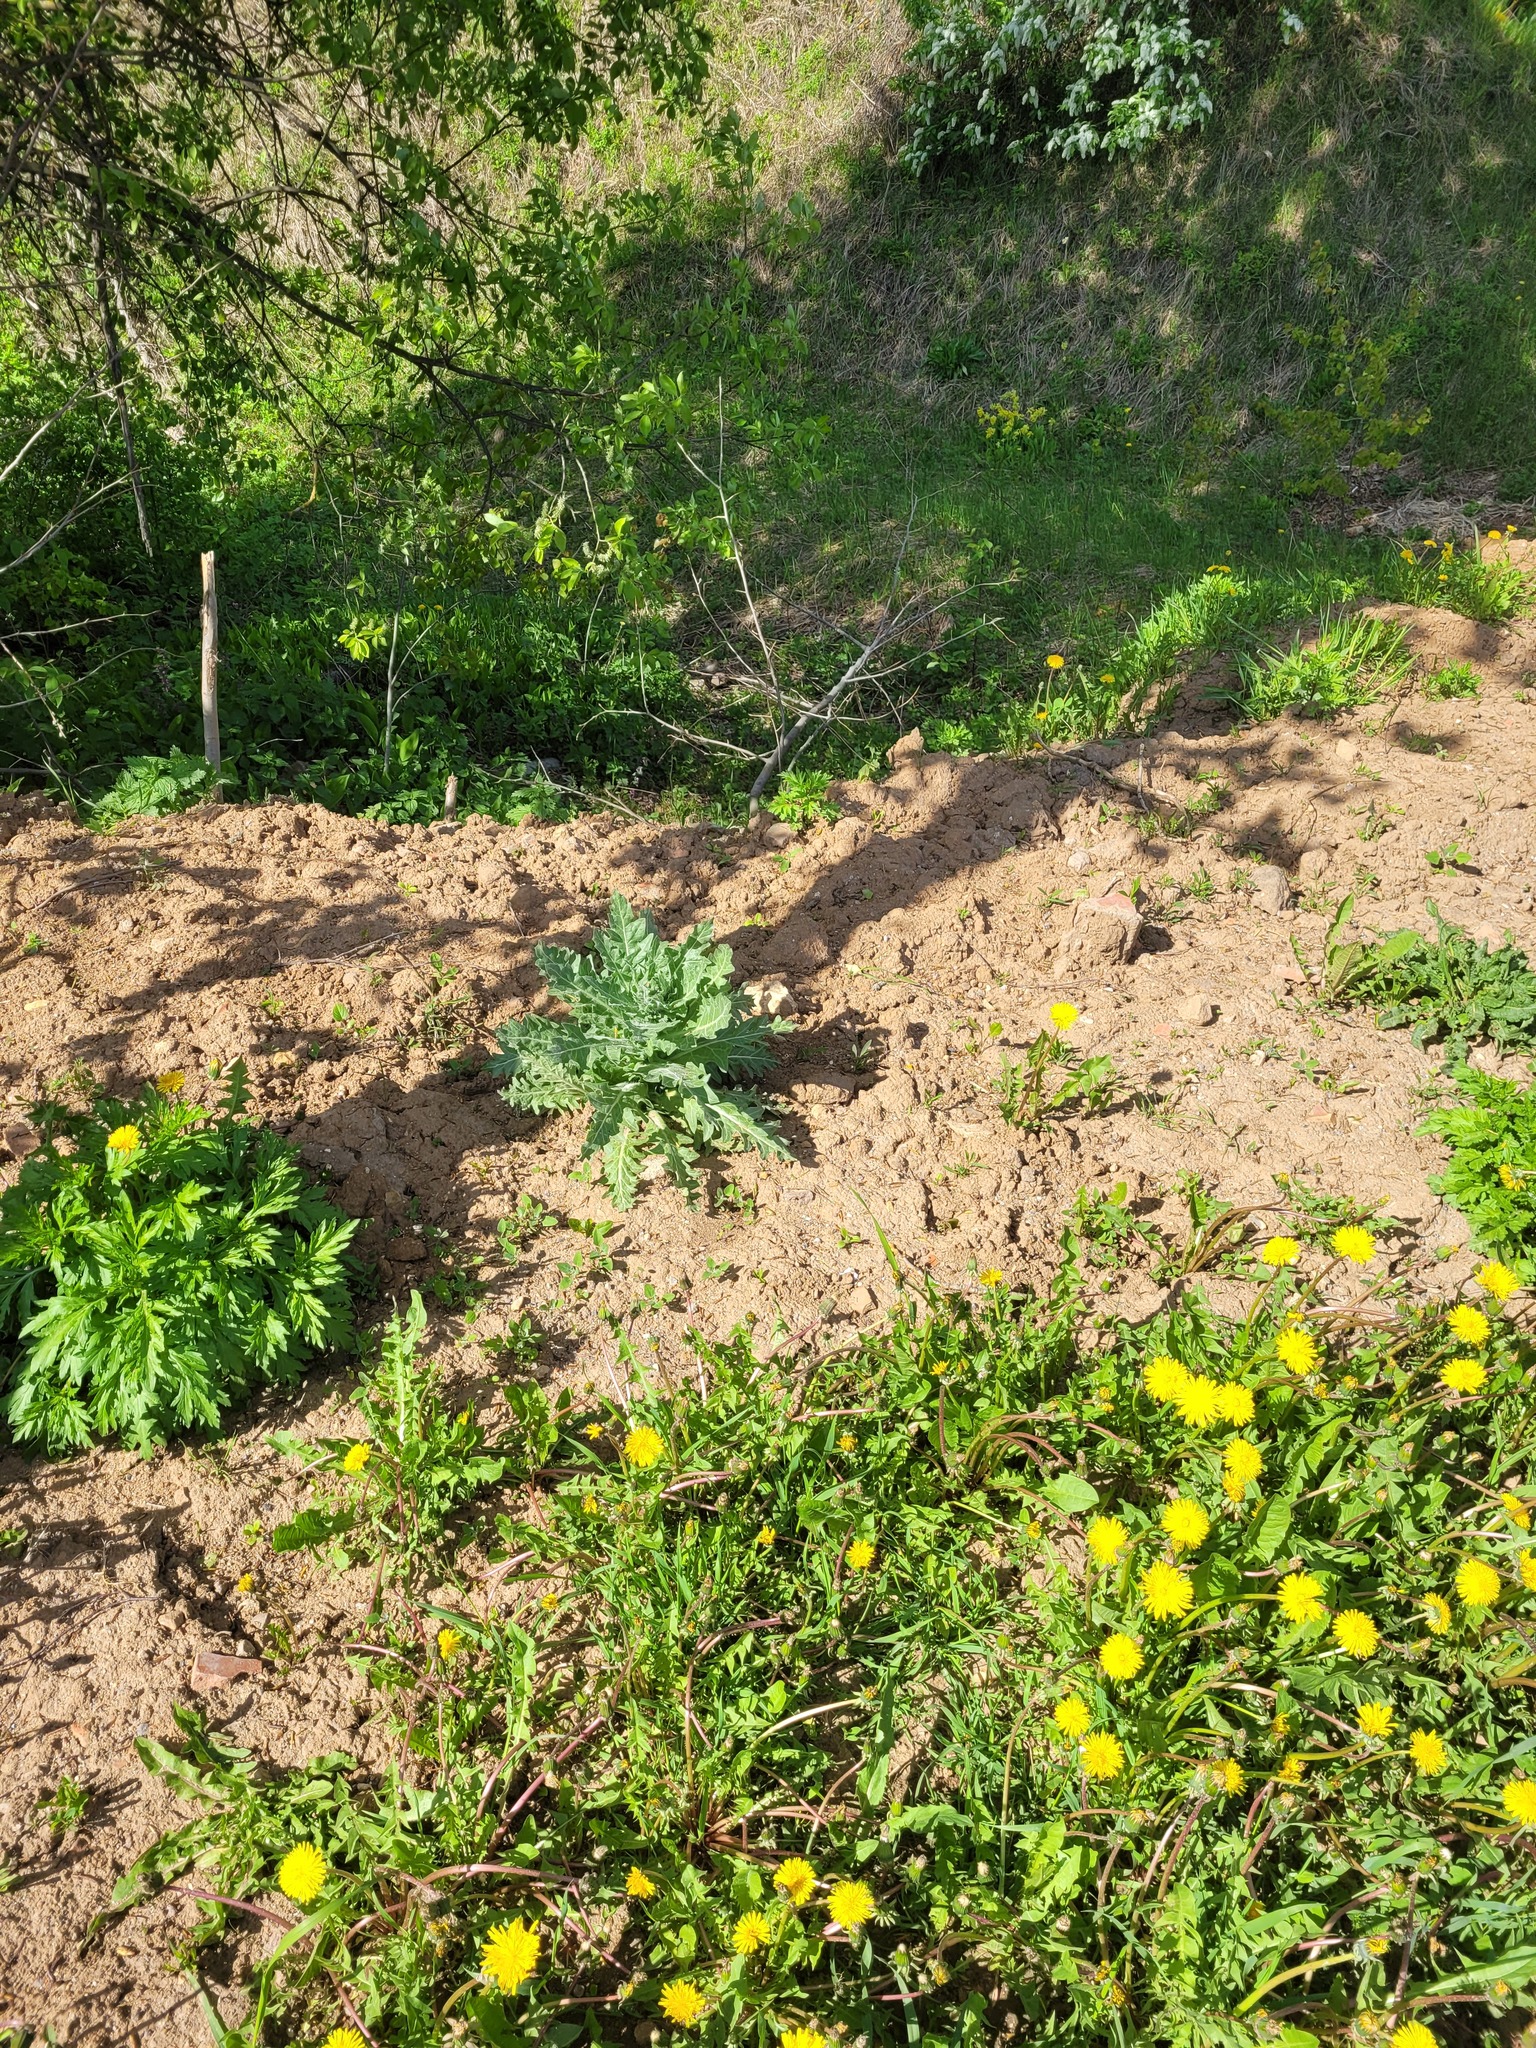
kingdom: Plantae
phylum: Tracheophyta
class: Magnoliopsida
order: Solanales
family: Solanaceae
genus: Hyoscyamus
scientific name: Hyoscyamus niger
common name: Henbane
